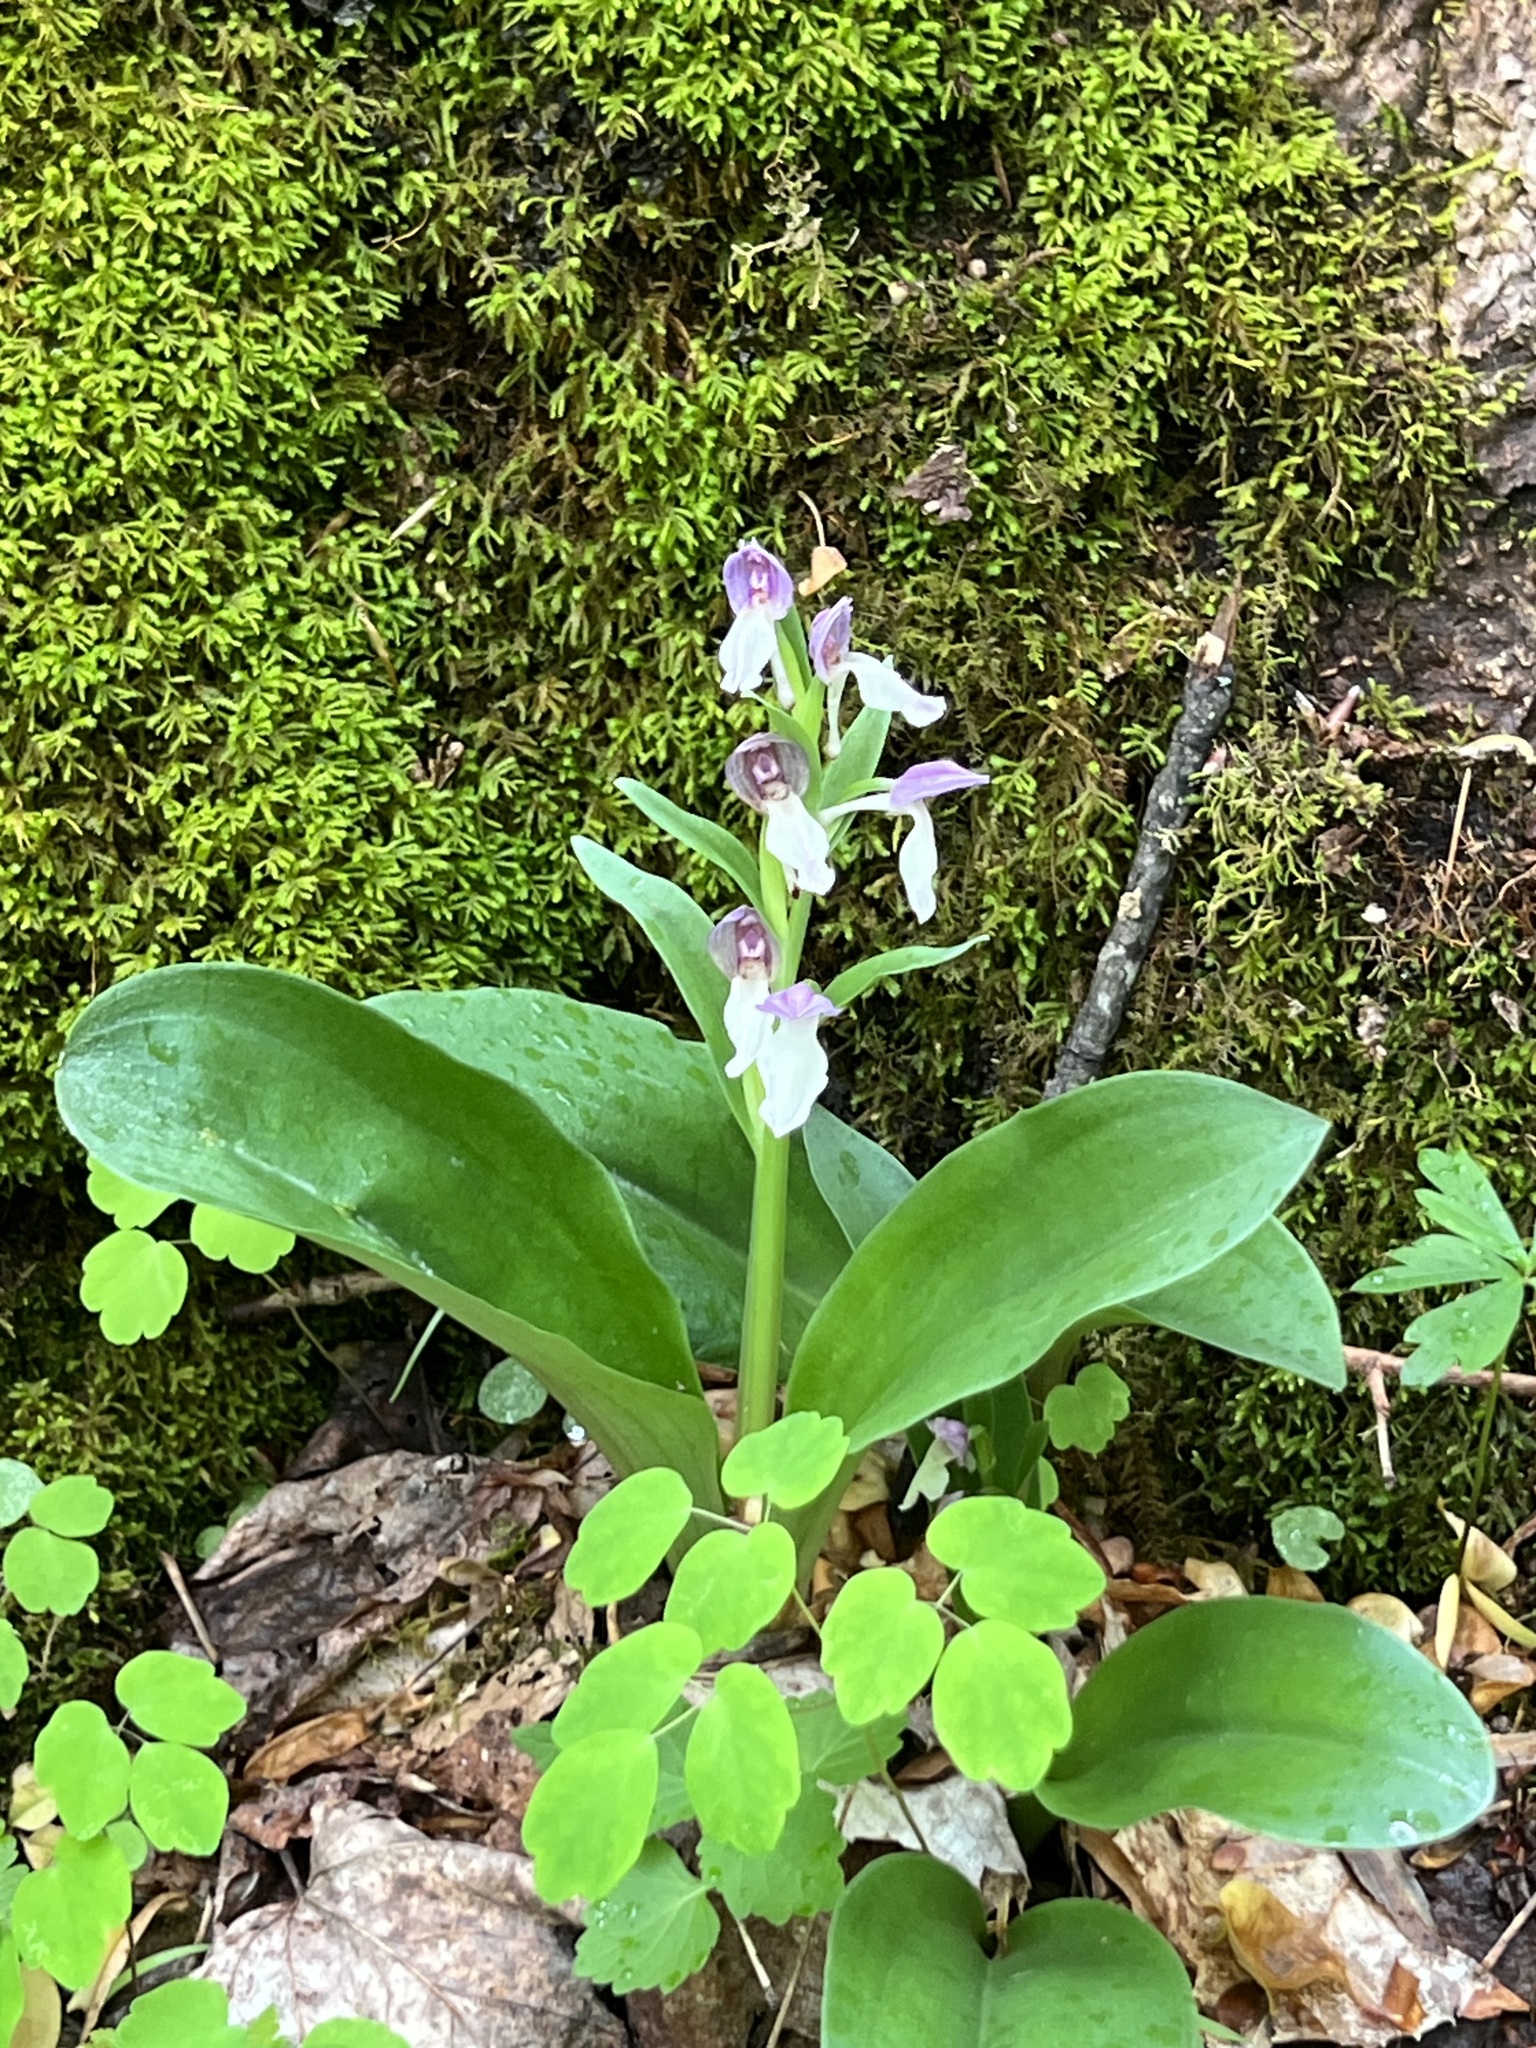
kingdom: Plantae
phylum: Tracheophyta
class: Liliopsida
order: Asparagales
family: Orchidaceae
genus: Galearis
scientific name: Galearis spectabilis
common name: Purple-hooded orchis
